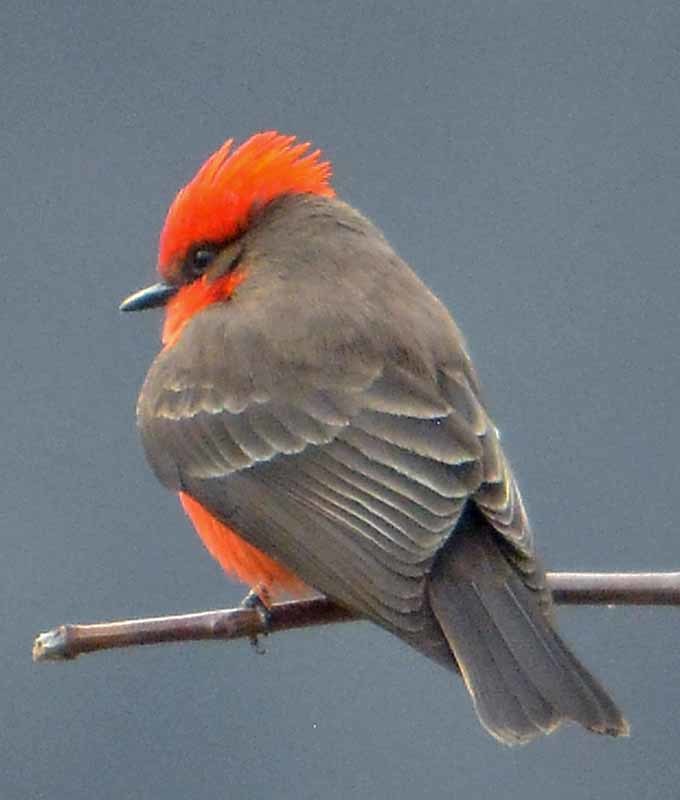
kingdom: Animalia
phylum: Chordata
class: Aves
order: Passeriformes
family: Tyrannidae
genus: Pyrocephalus
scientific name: Pyrocephalus rubinus
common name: Vermilion flycatcher
